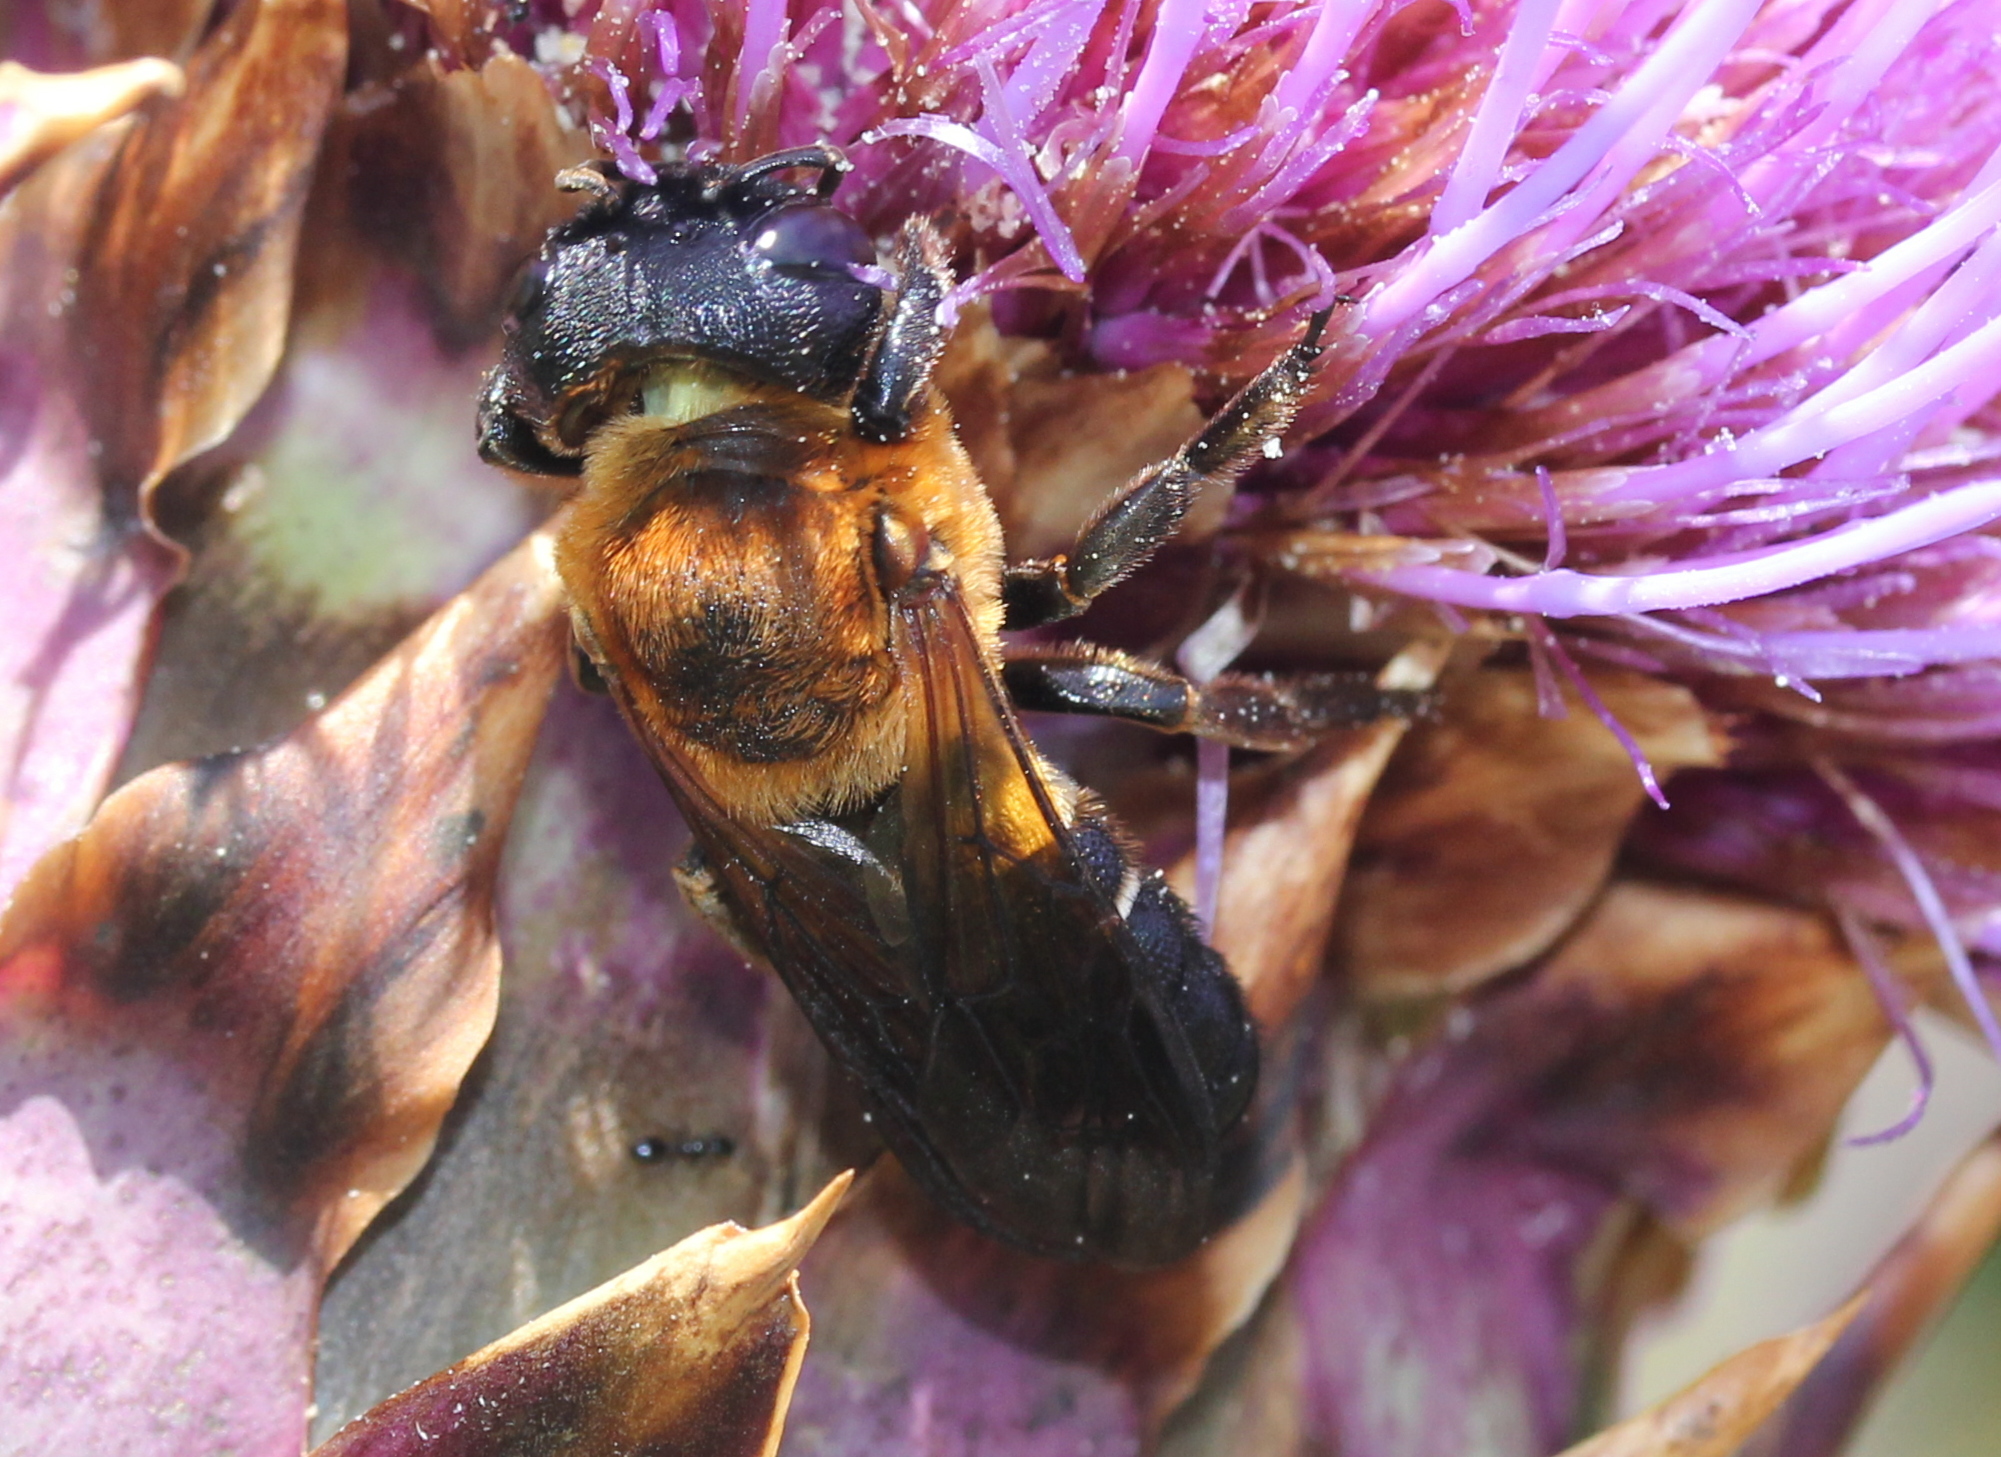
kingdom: Animalia
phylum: Arthropoda
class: Insecta
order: Hymenoptera
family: Megachilidae
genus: Megachile
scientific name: Megachile sculpturalis
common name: Sculptured resin bee
